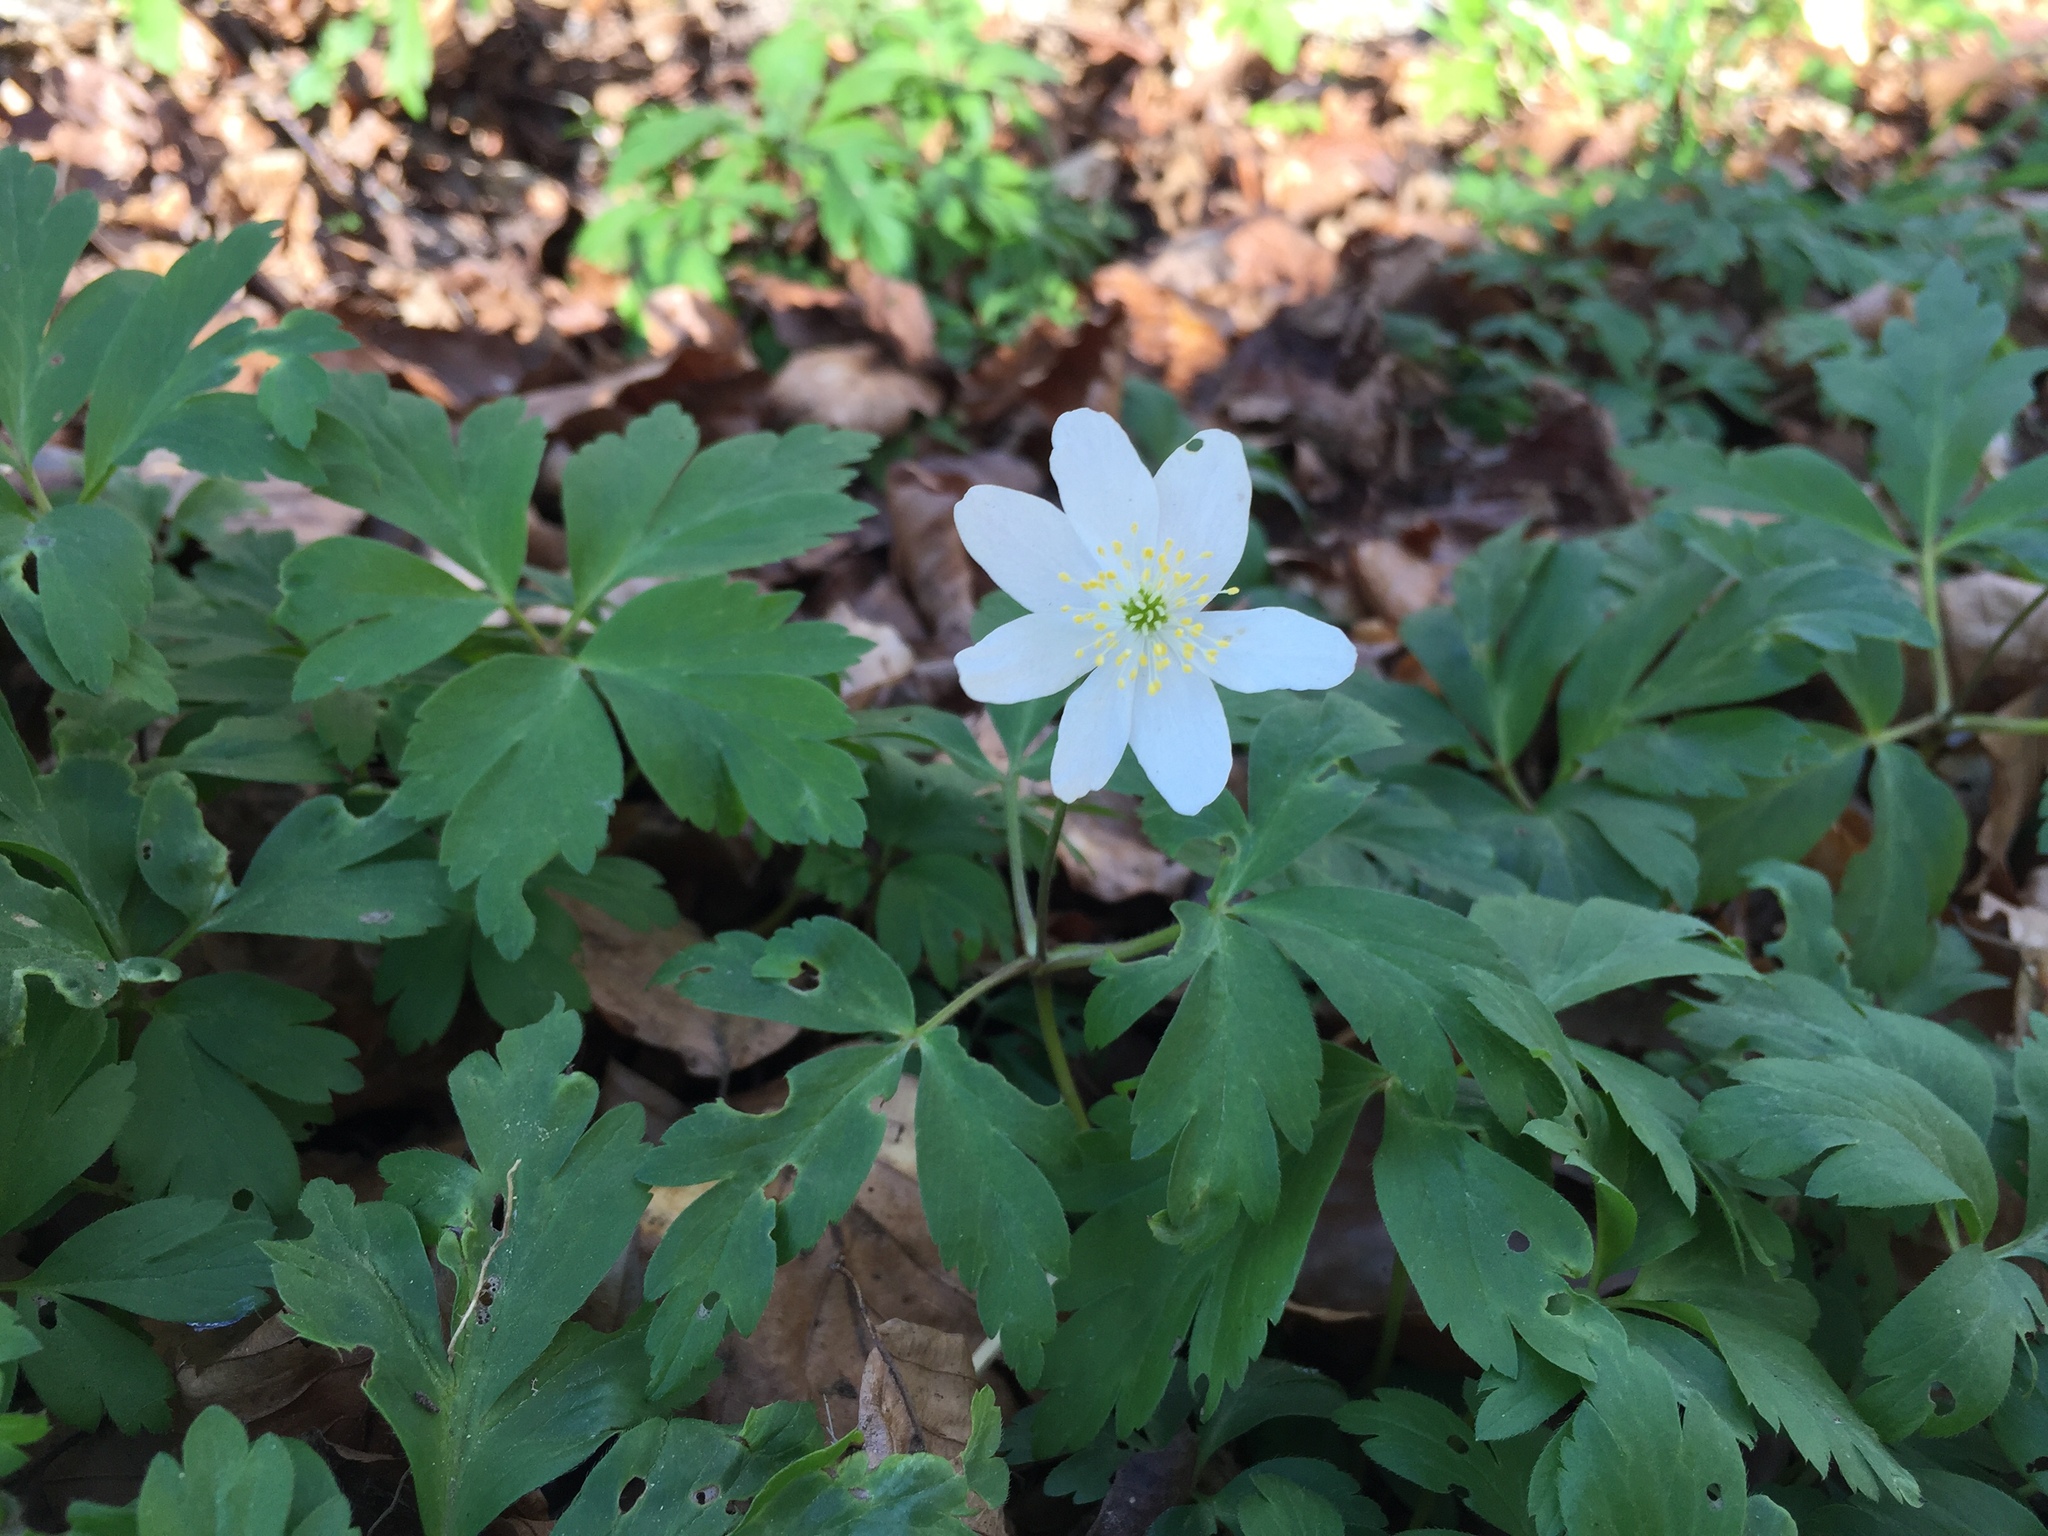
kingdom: Plantae
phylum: Tracheophyta
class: Magnoliopsida
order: Ranunculales
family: Ranunculaceae
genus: Anemone
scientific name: Anemone nemorosa
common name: Wood anemone
